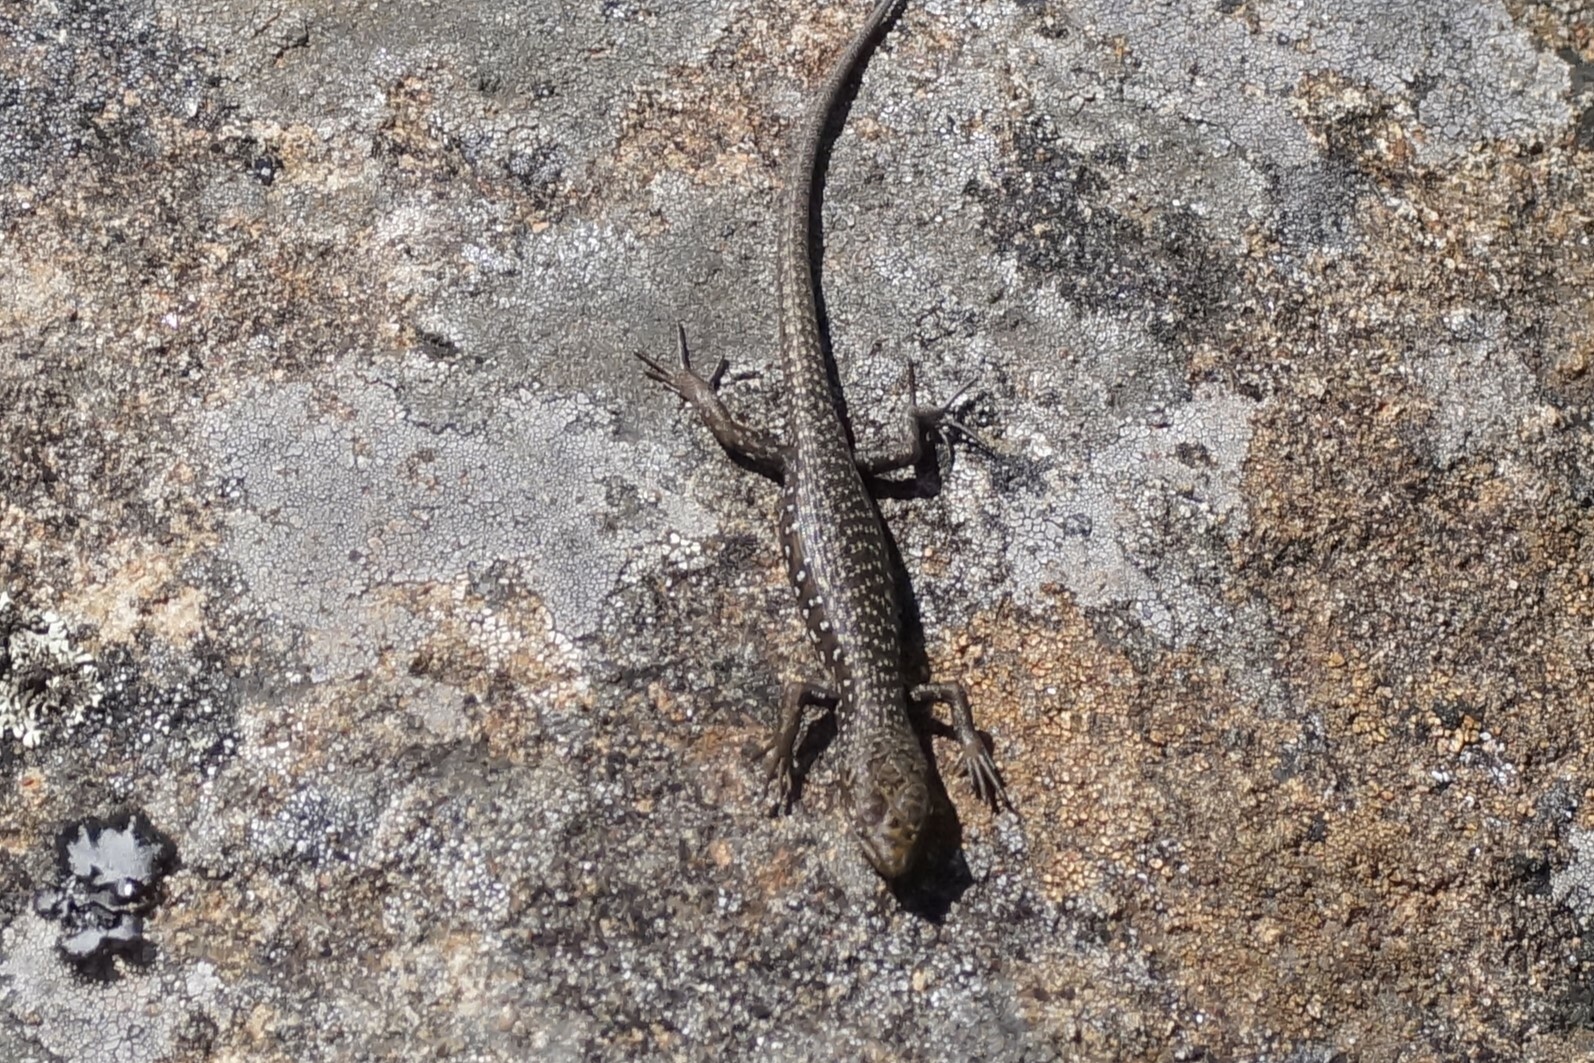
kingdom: Animalia
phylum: Chordata
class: Squamata
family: Scincidae
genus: Carinascincus
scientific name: Carinascincus ocellatus
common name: Ocellated cool-skink
